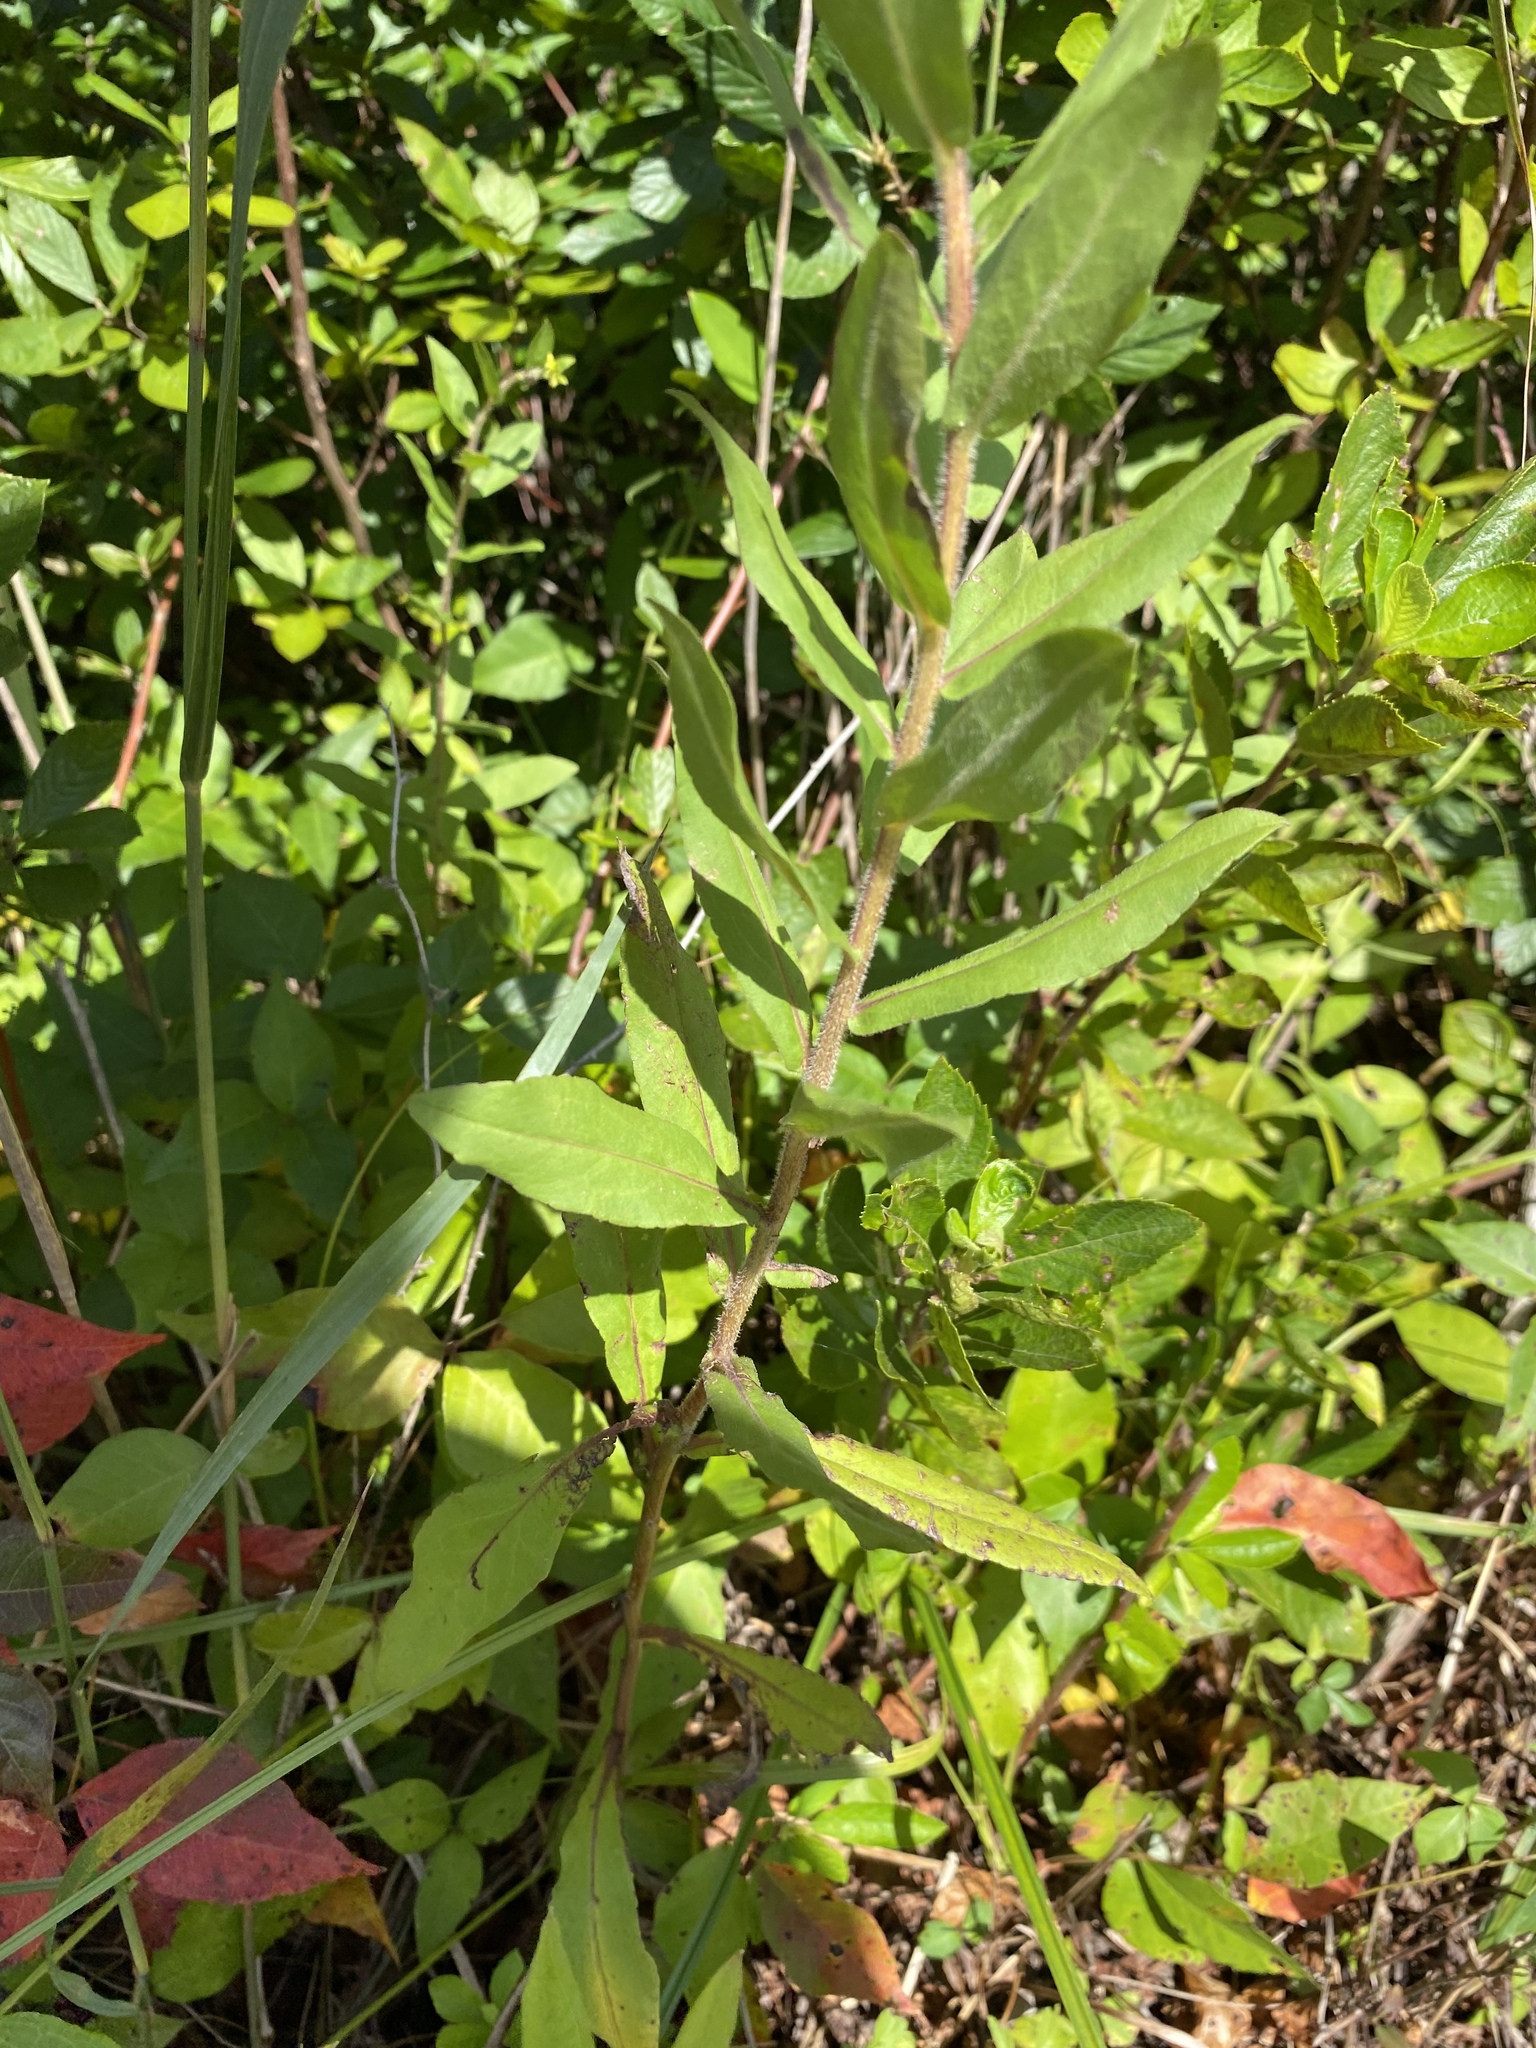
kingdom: Plantae
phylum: Tracheophyta
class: Magnoliopsida
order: Asterales
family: Asteraceae
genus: Solidago
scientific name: Solidago fistulosa
